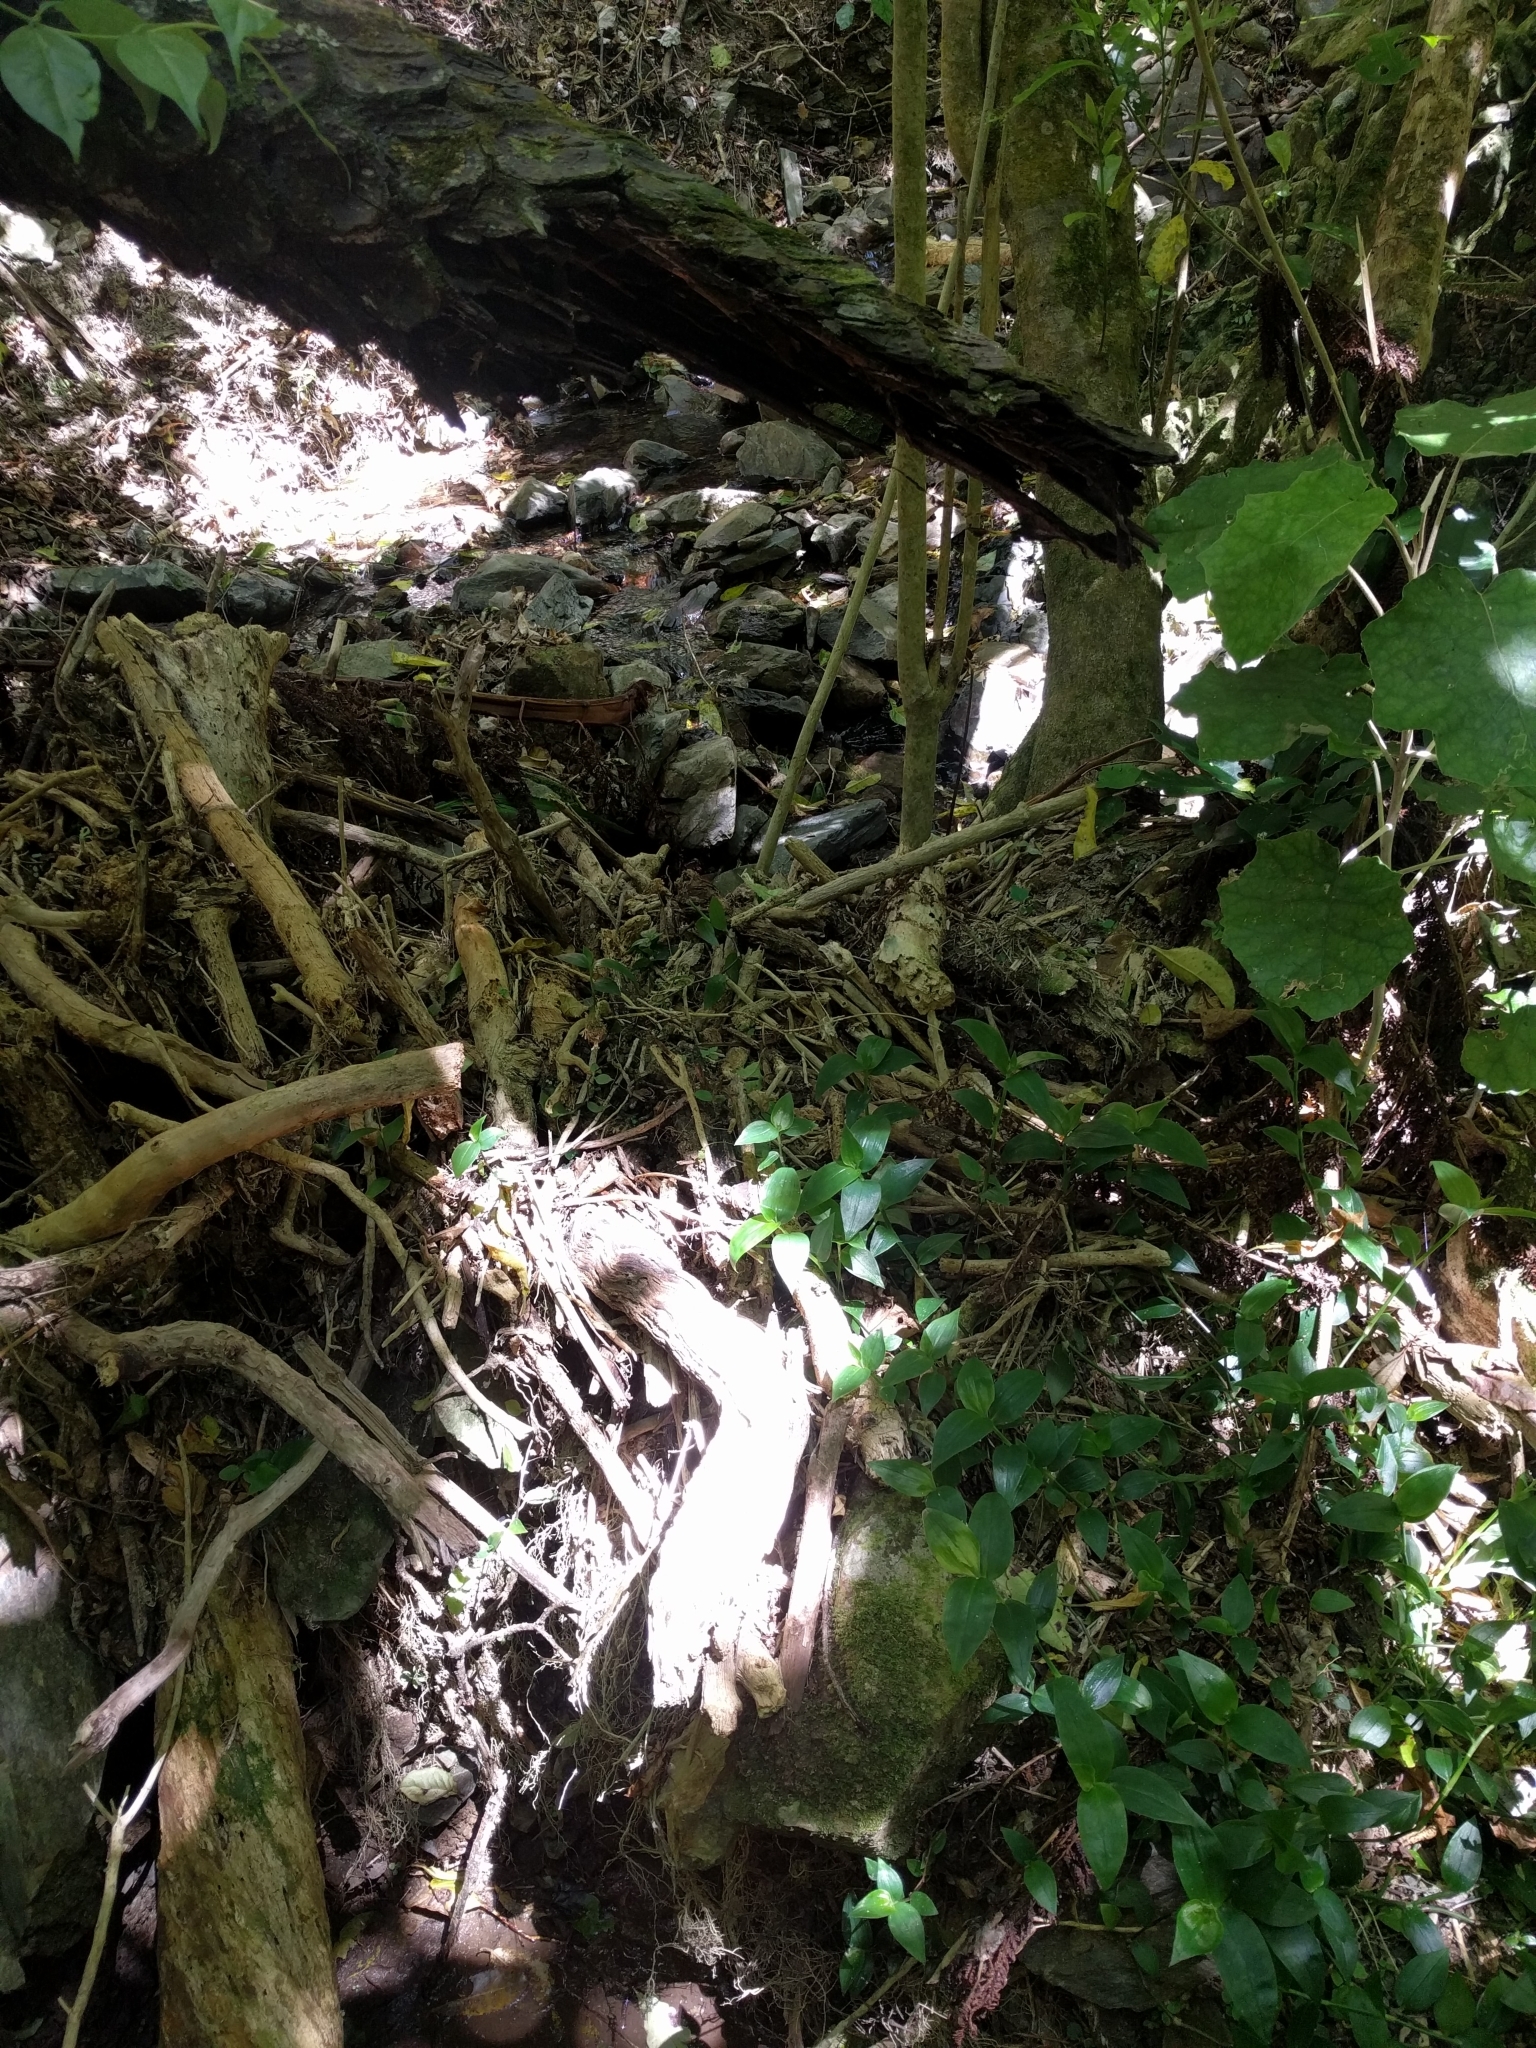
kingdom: Plantae
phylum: Tracheophyta
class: Liliopsida
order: Commelinales
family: Commelinaceae
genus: Tradescantia
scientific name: Tradescantia fluminensis
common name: Wandering-jew
